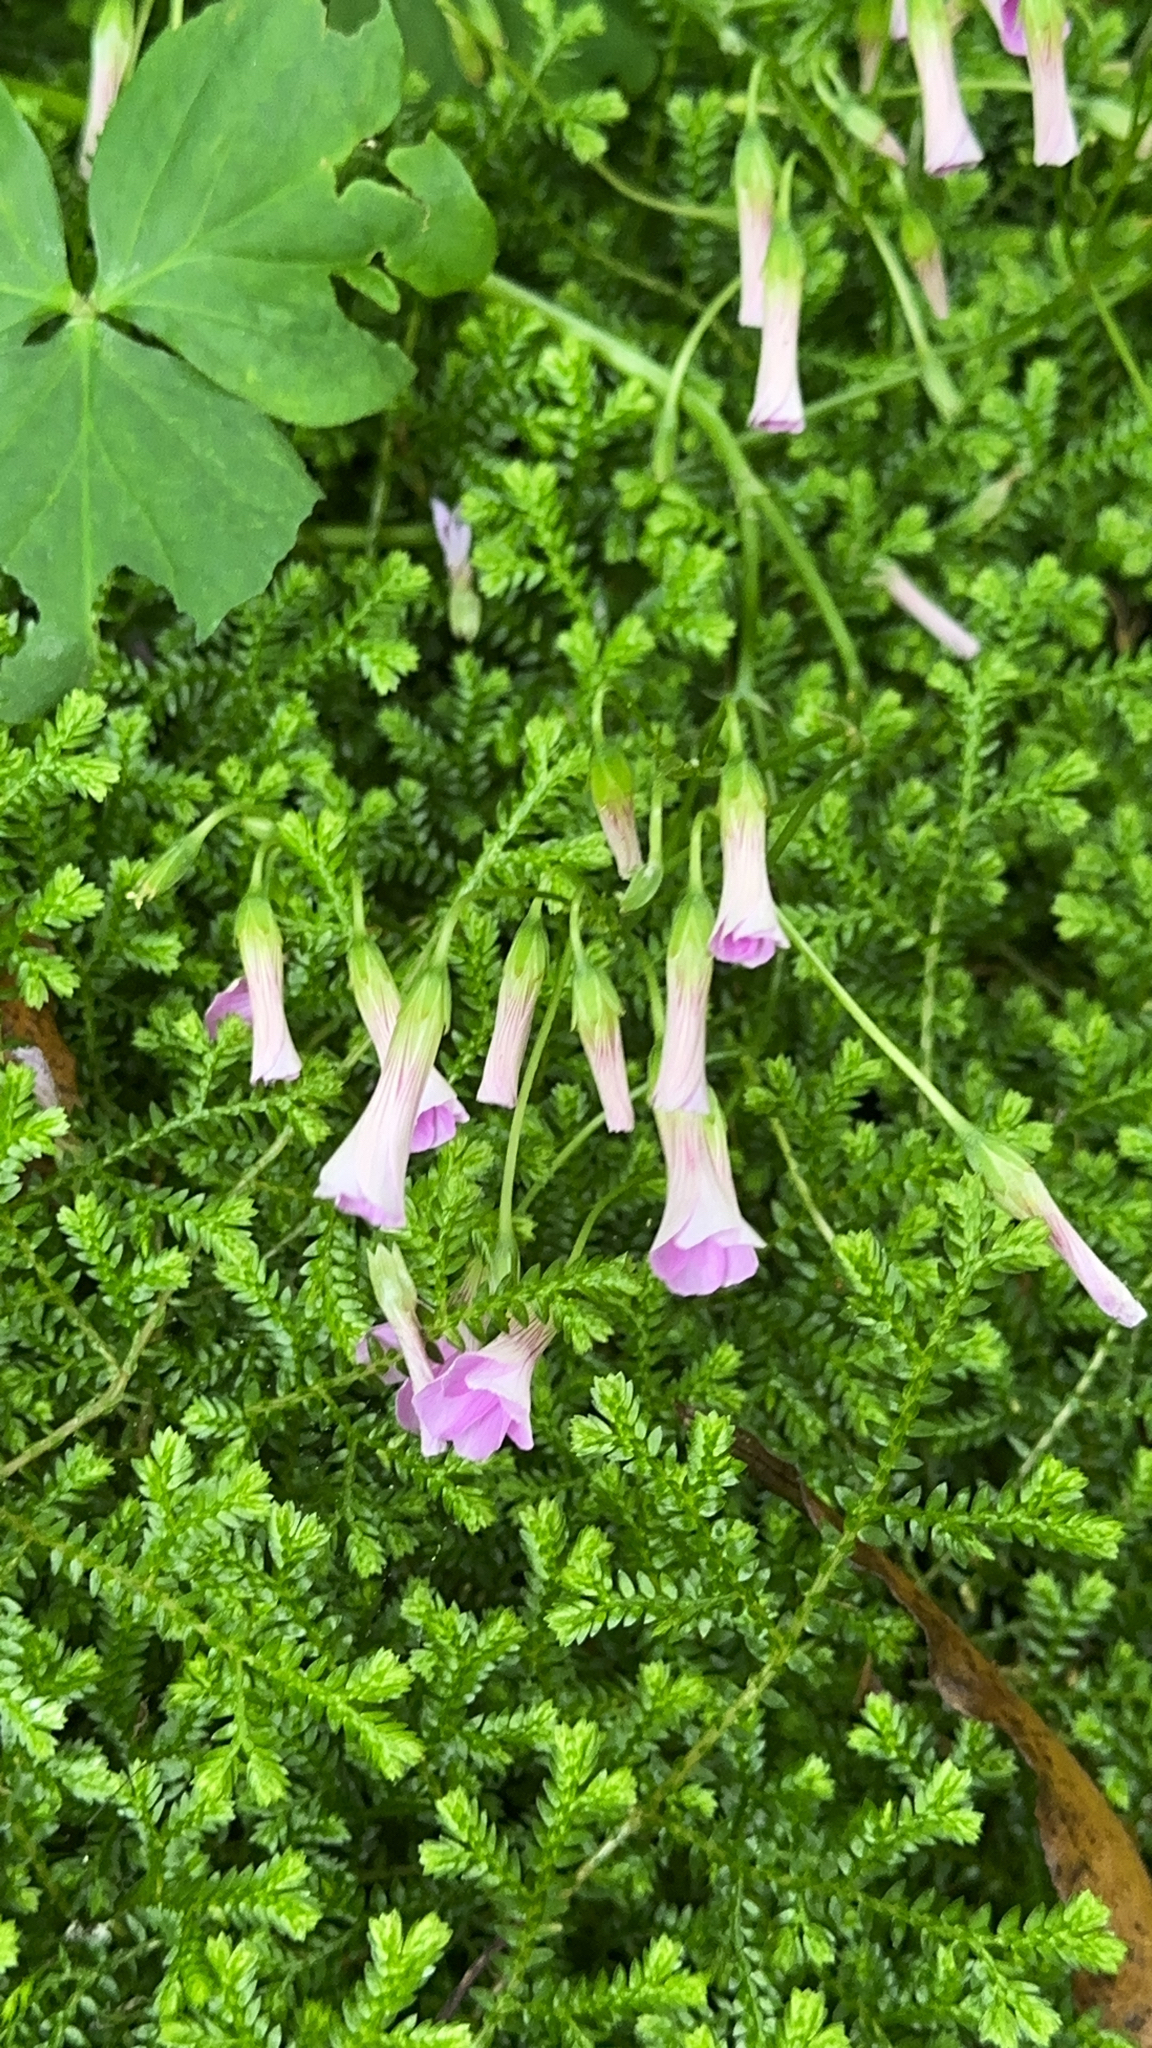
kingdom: Plantae
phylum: Tracheophyta
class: Magnoliopsida
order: Oxalidales
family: Oxalidaceae
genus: Oxalis
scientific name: Oxalis debilis
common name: Large-flowered pink-sorrel
